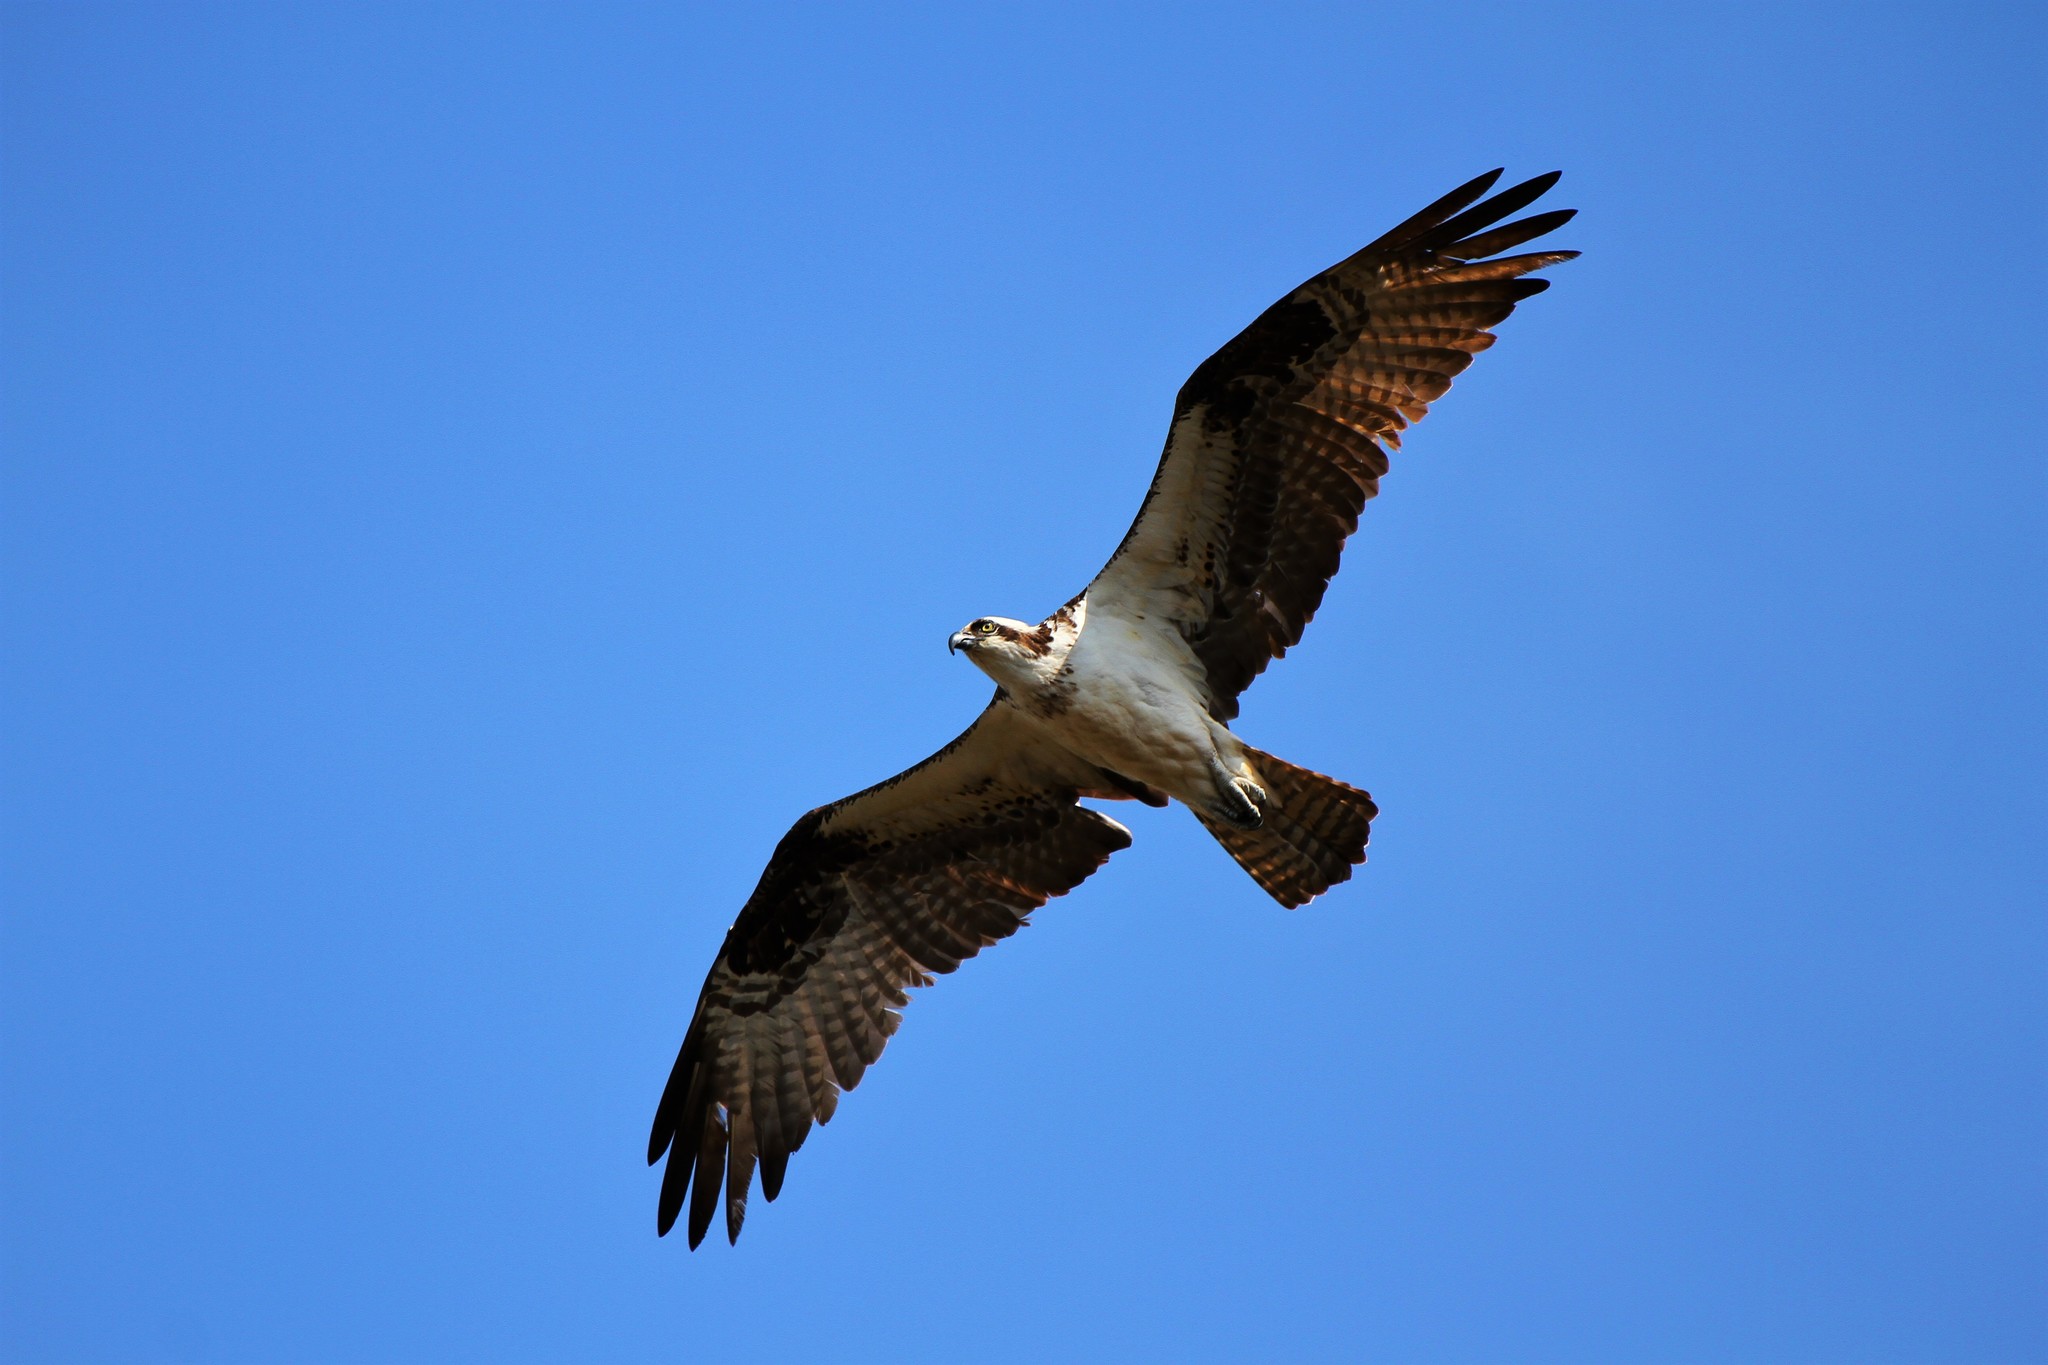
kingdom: Animalia
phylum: Chordata
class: Aves
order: Accipitriformes
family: Pandionidae
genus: Pandion
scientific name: Pandion haliaetus
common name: Osprey
